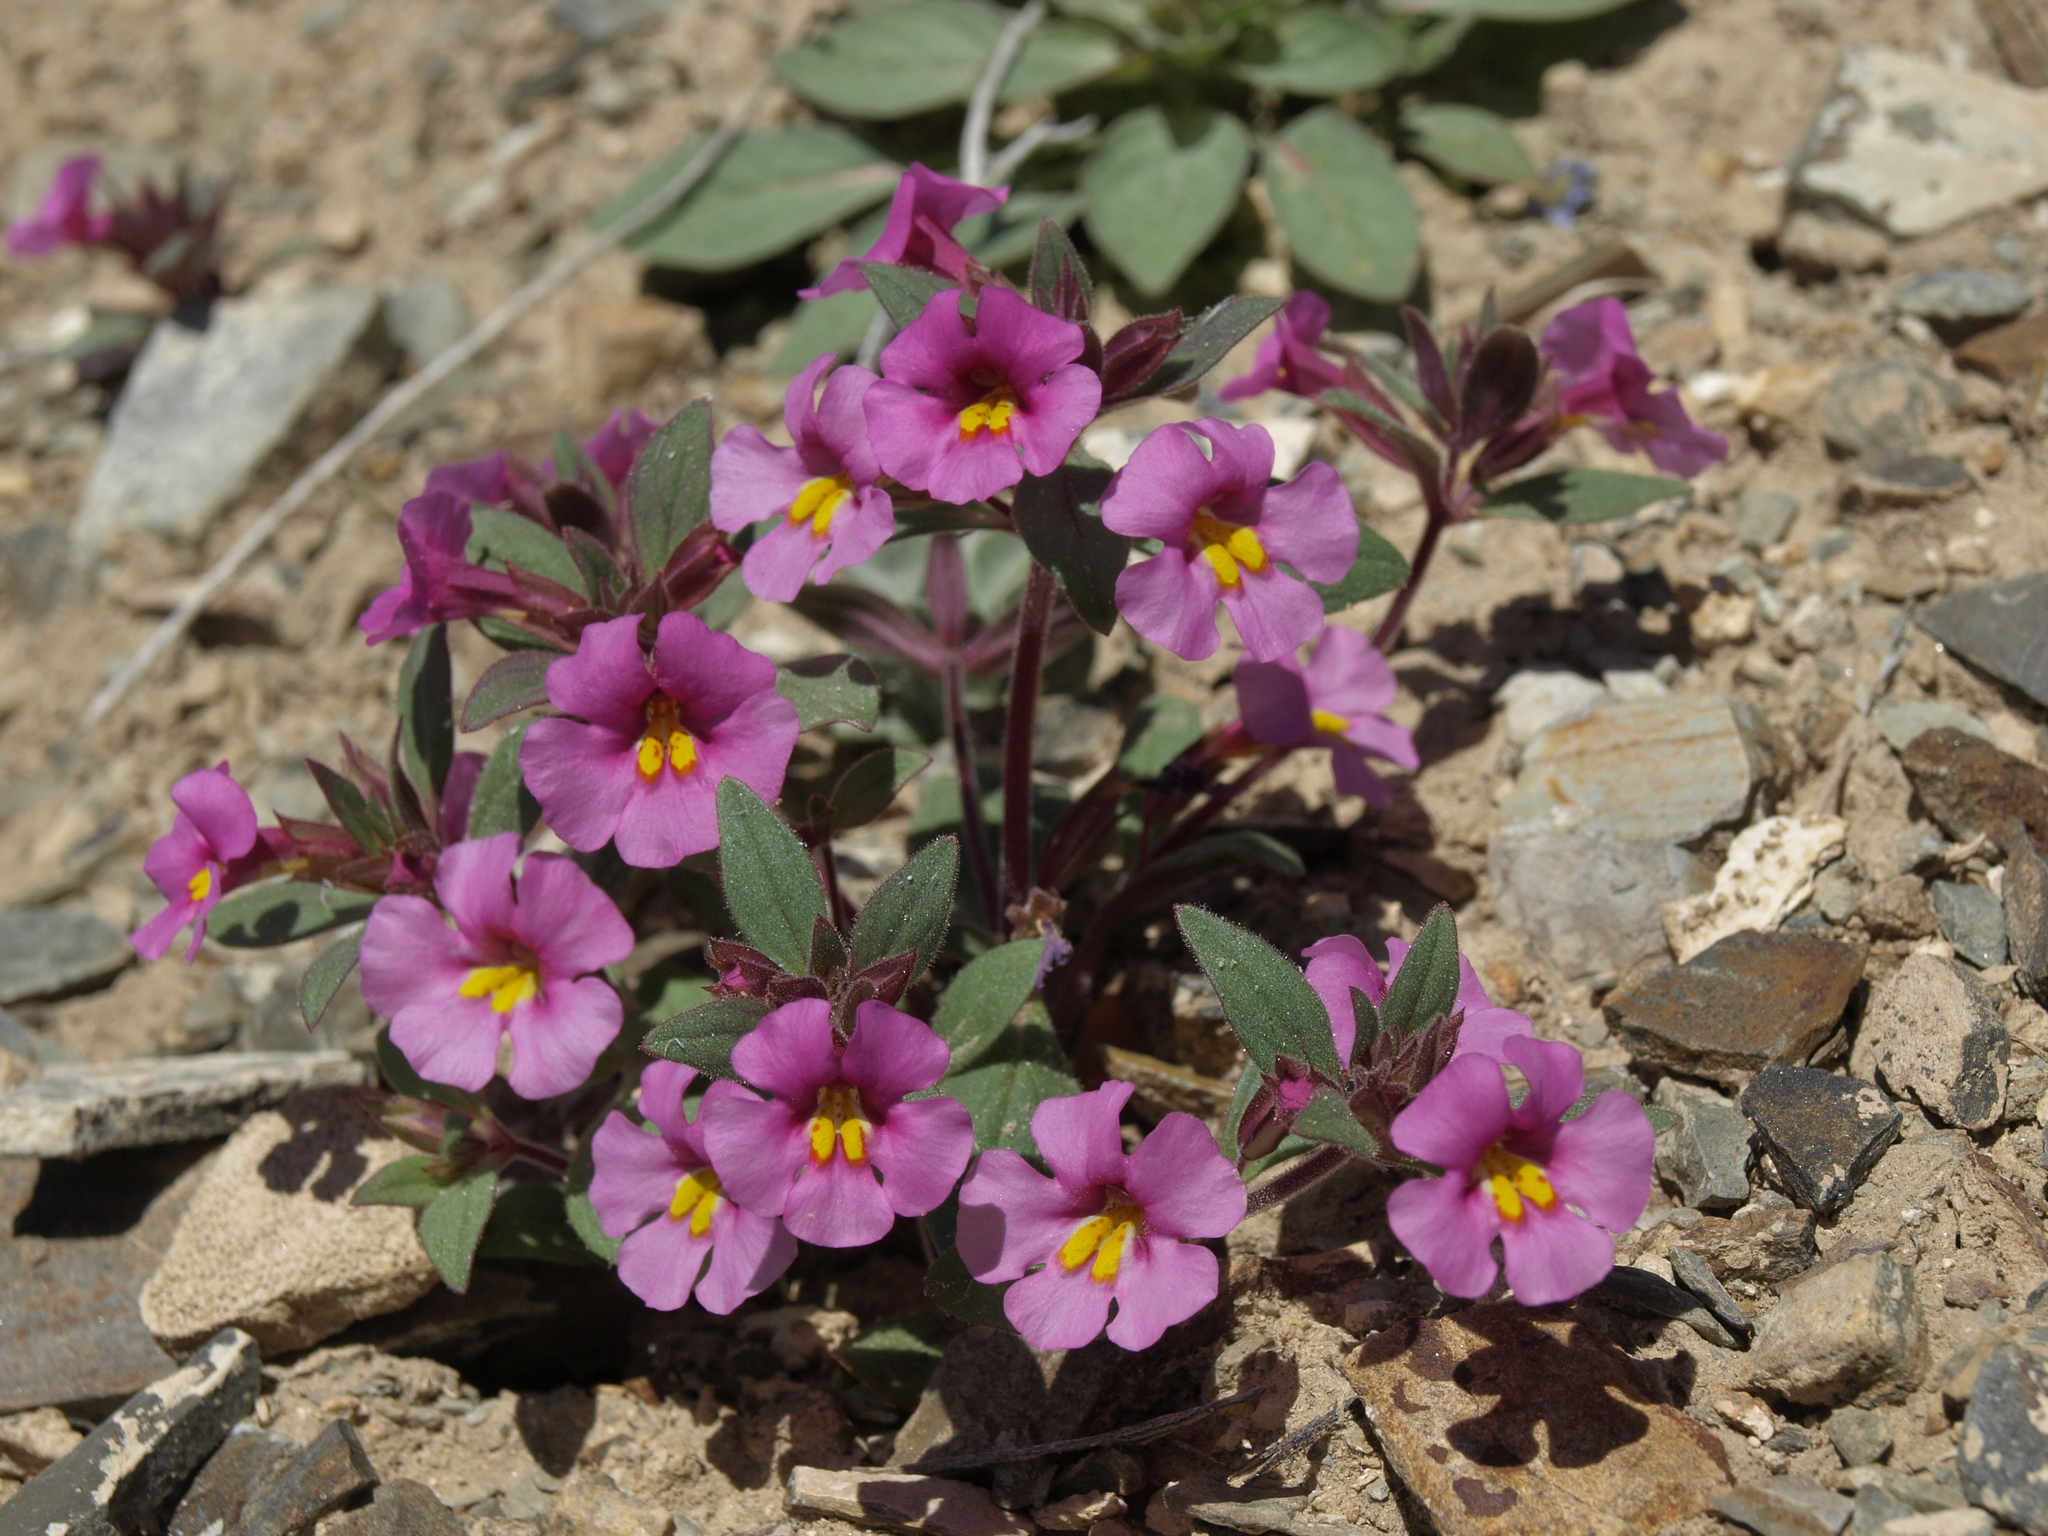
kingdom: Plantae
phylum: Tracheophyta
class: Magnoliopsida
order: Lamiales
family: Phrymaceae
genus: Diplacus
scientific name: Diplacus parryi
